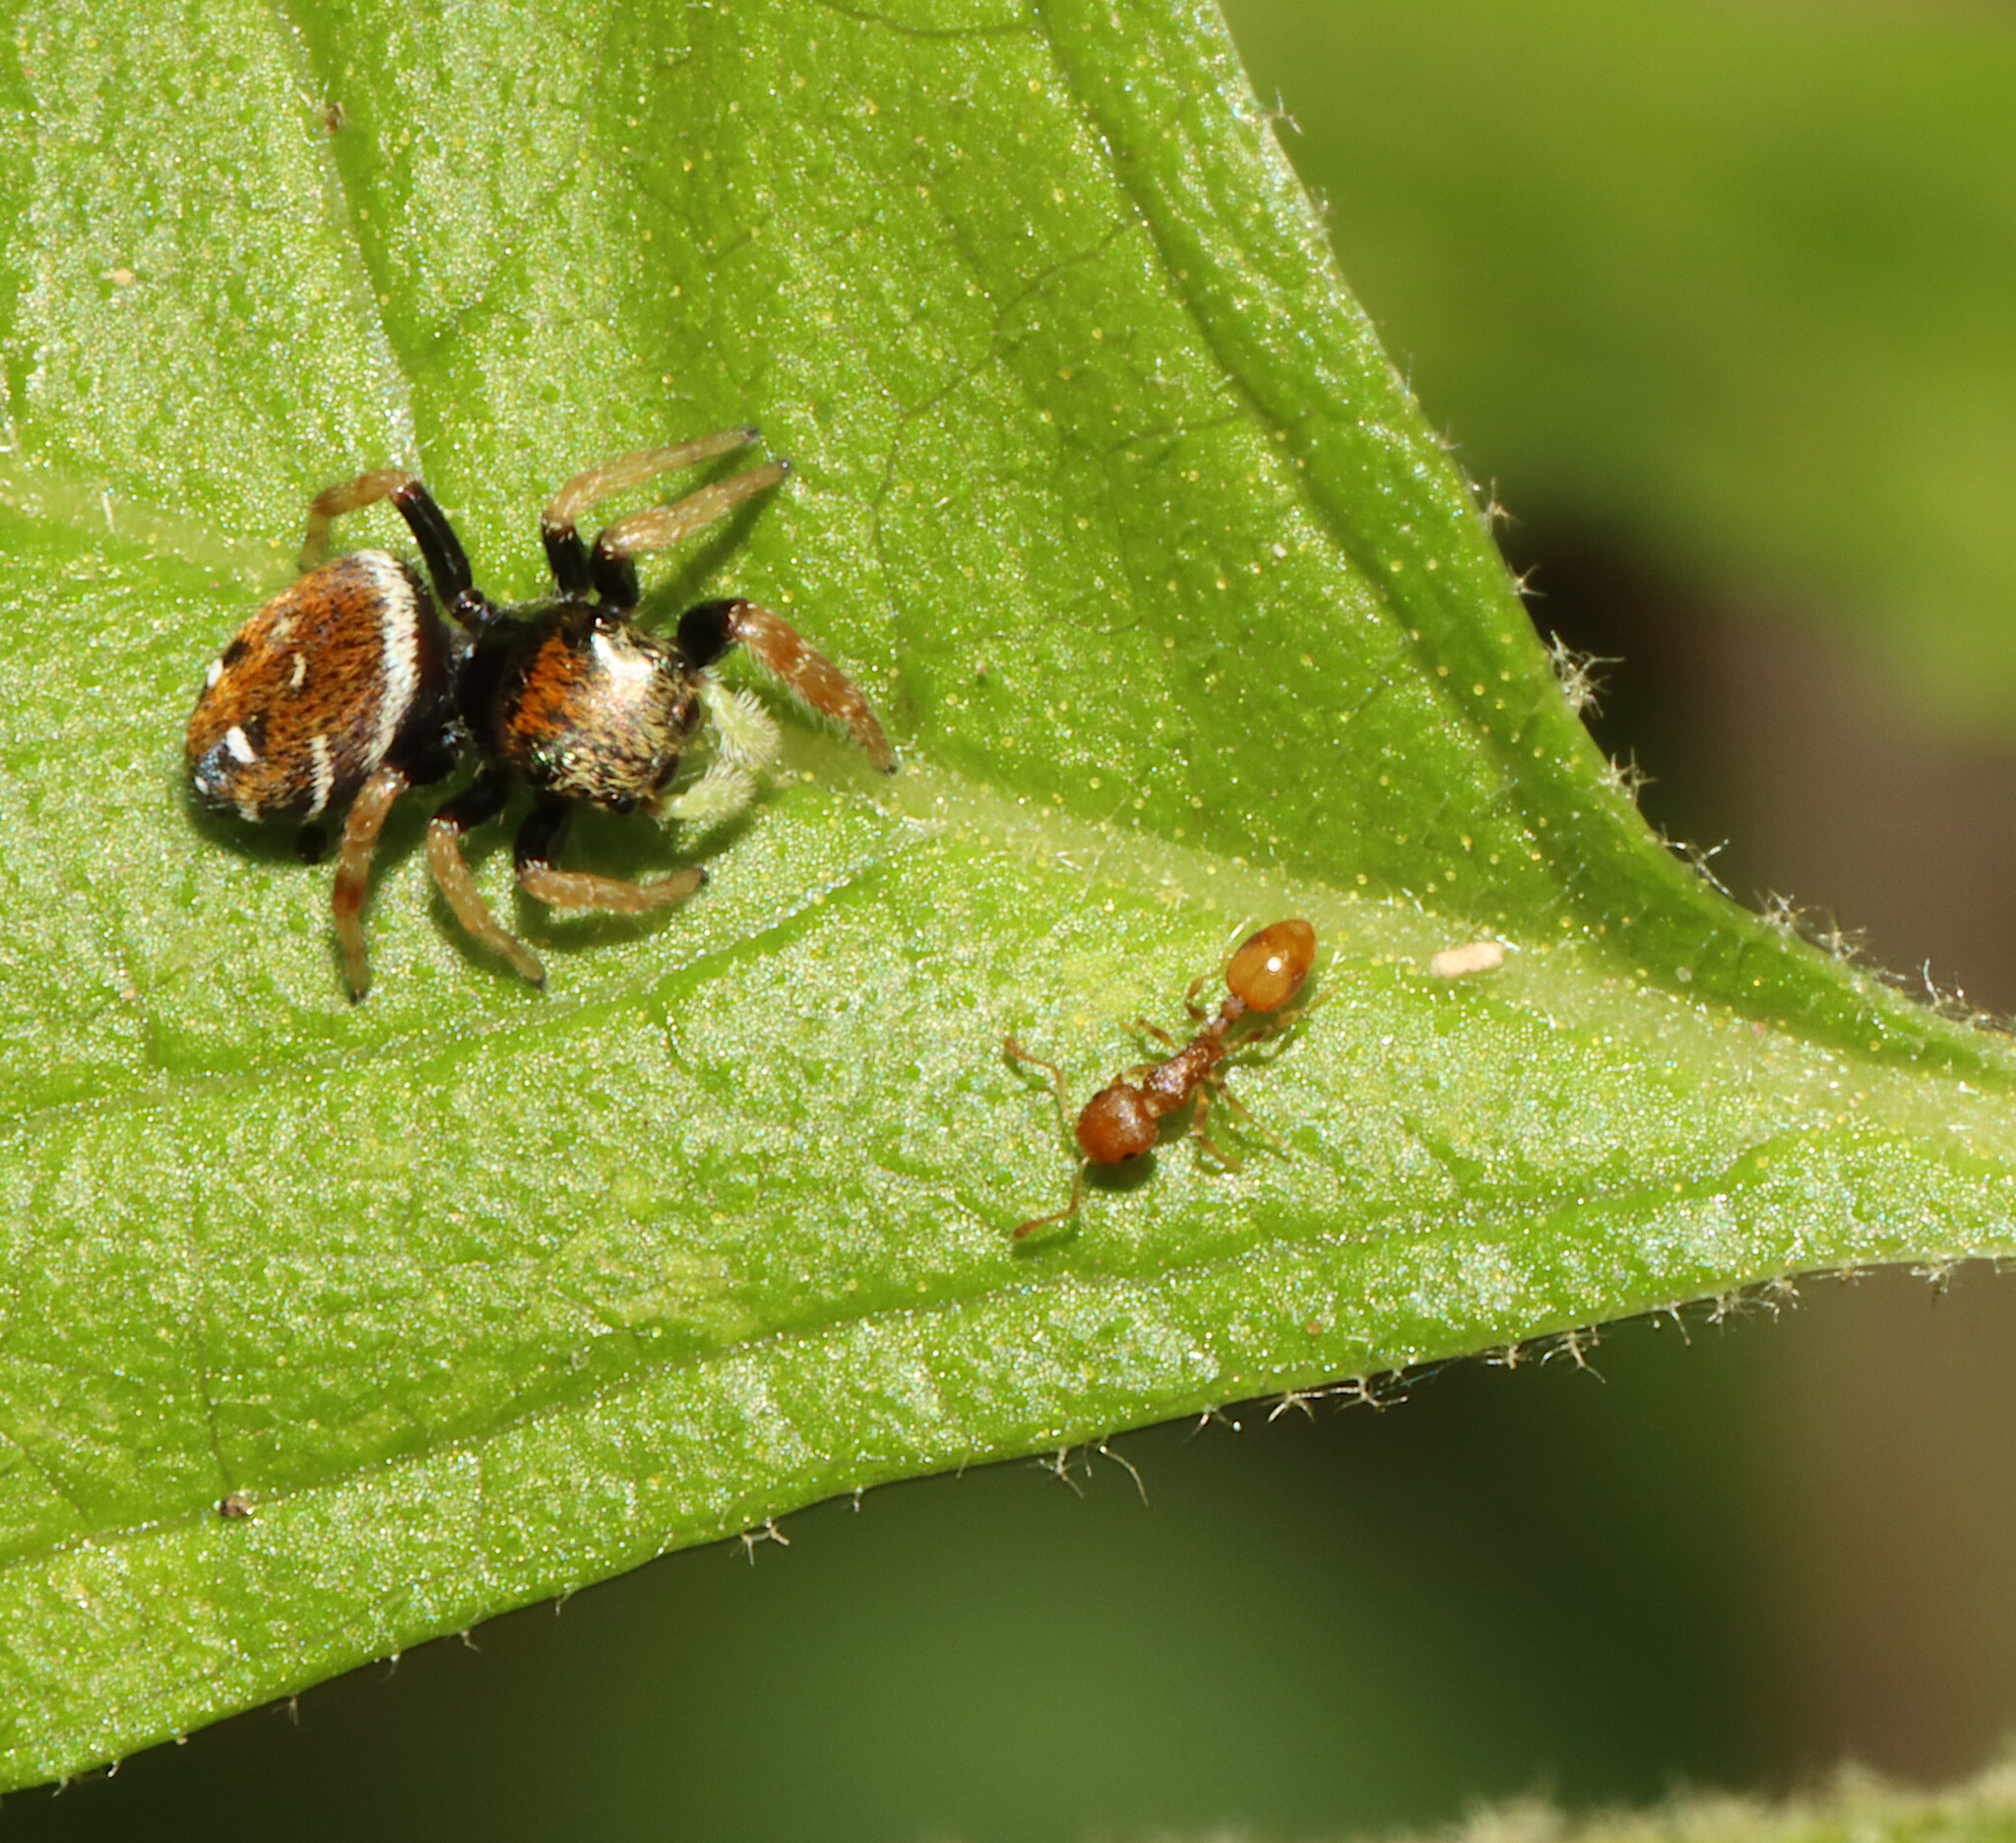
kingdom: Animalia
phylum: Arthropoda
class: Arachnida
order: Araneae
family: Salticidae
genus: Phidippus
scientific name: Phidippus whitmani
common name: Whitman's jumping spider
